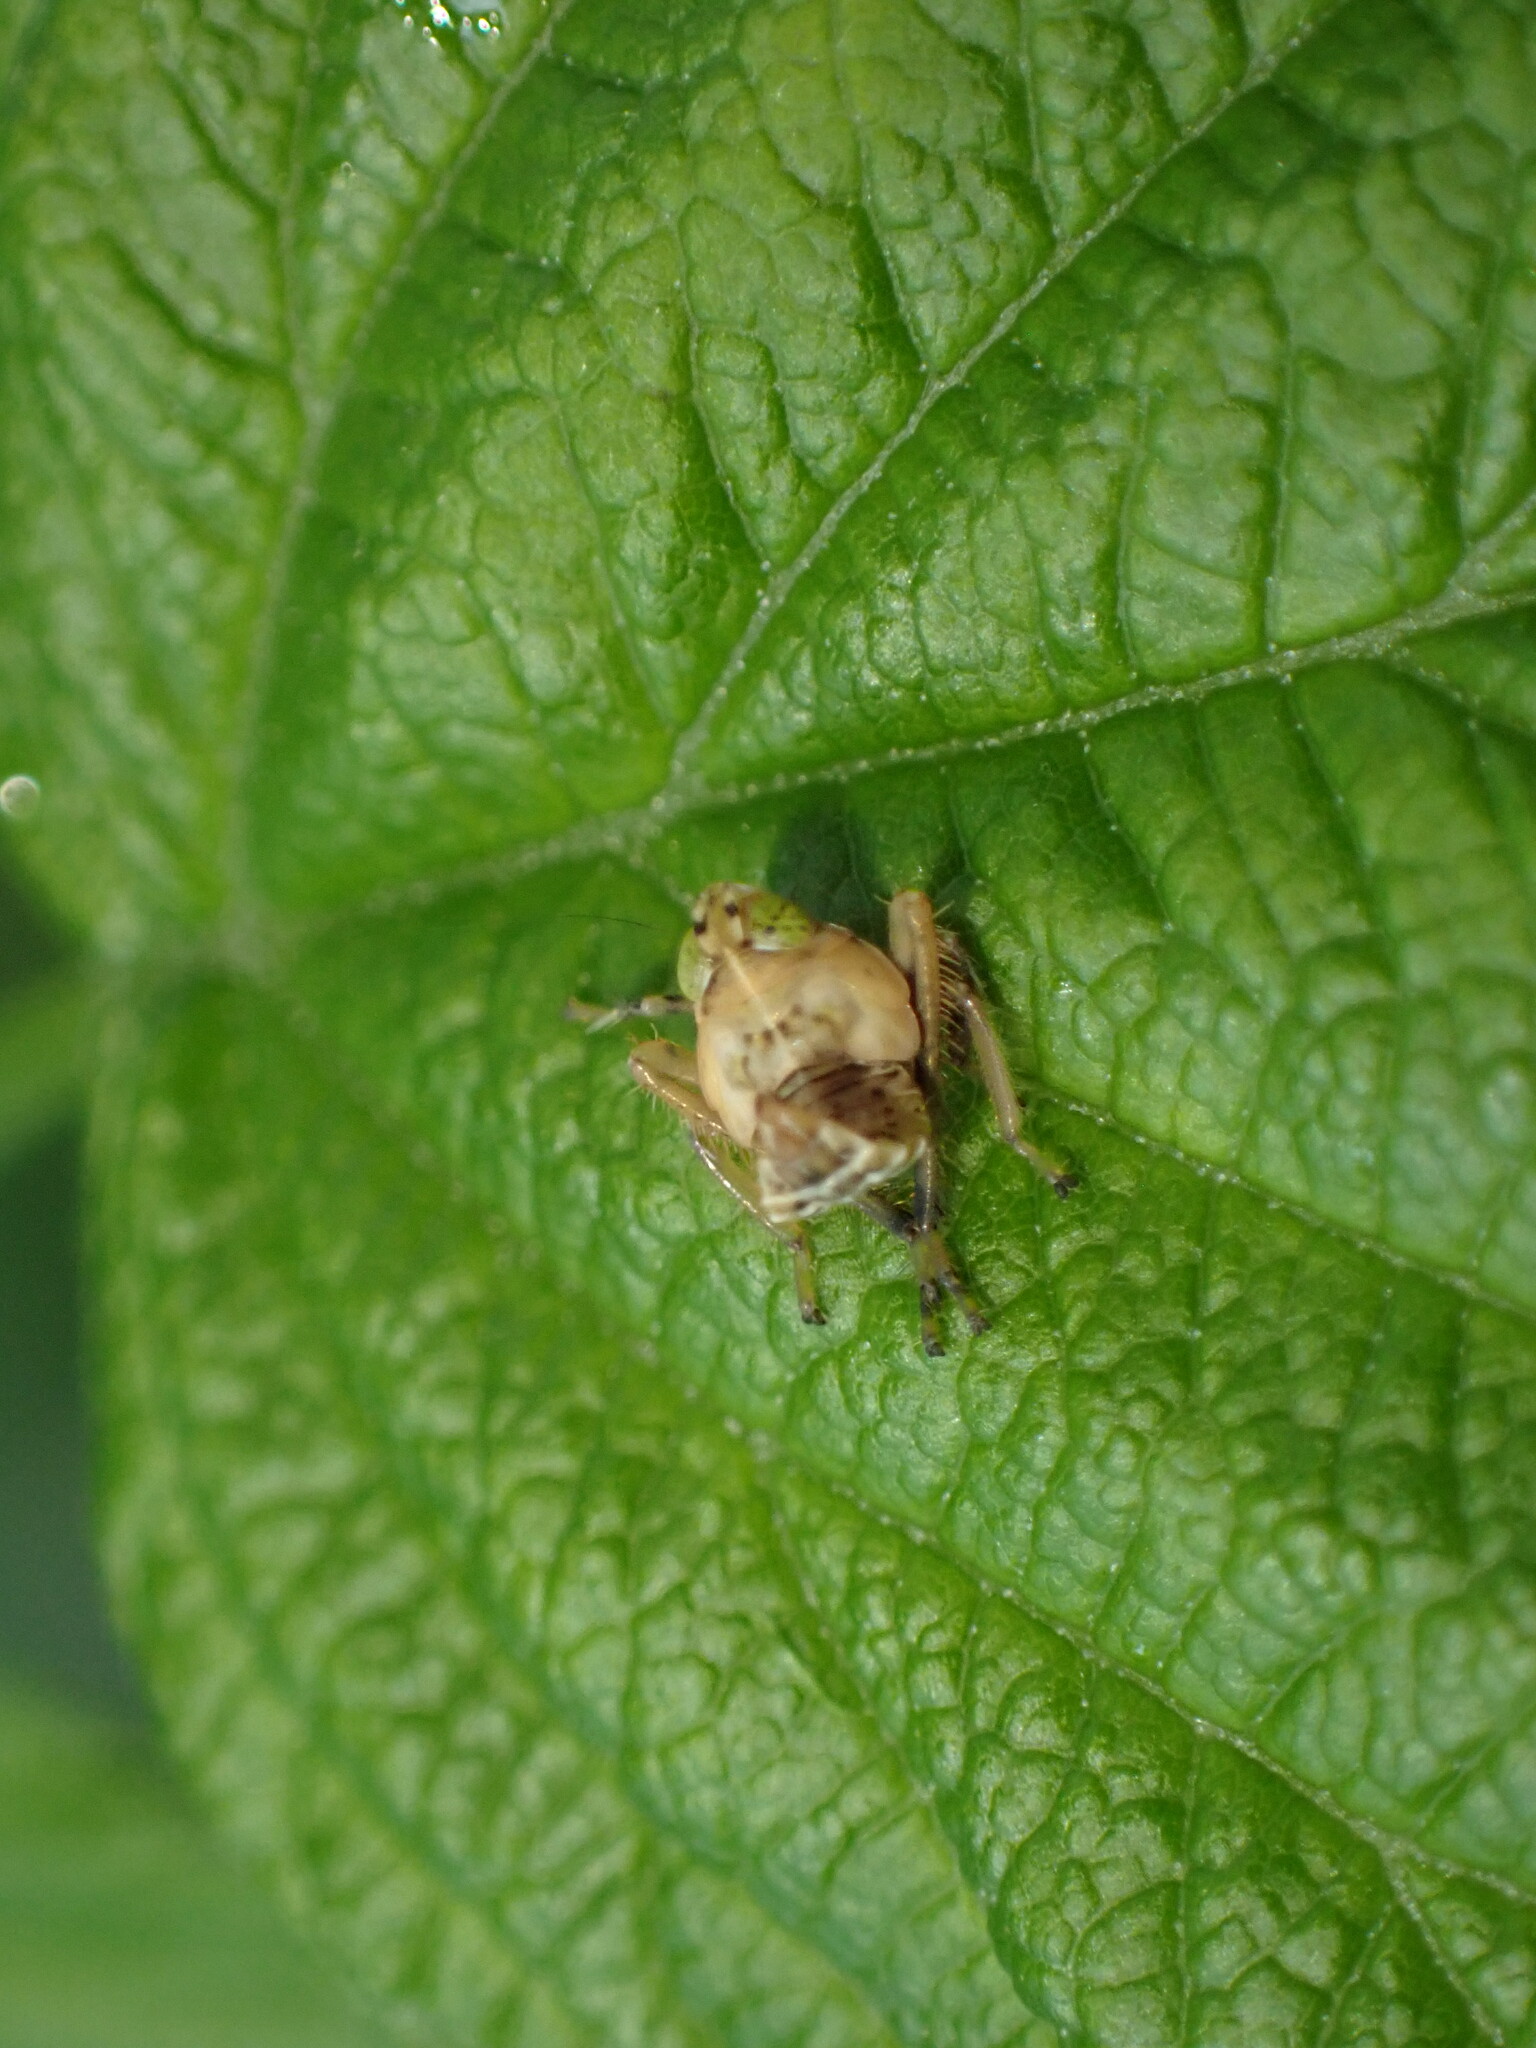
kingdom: Animalia
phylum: Arthropoda
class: Insecta
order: Hemiptera
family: Cicadellidae
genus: Jikradia
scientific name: Jikradia olitoria
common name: Coppery leafhopper
